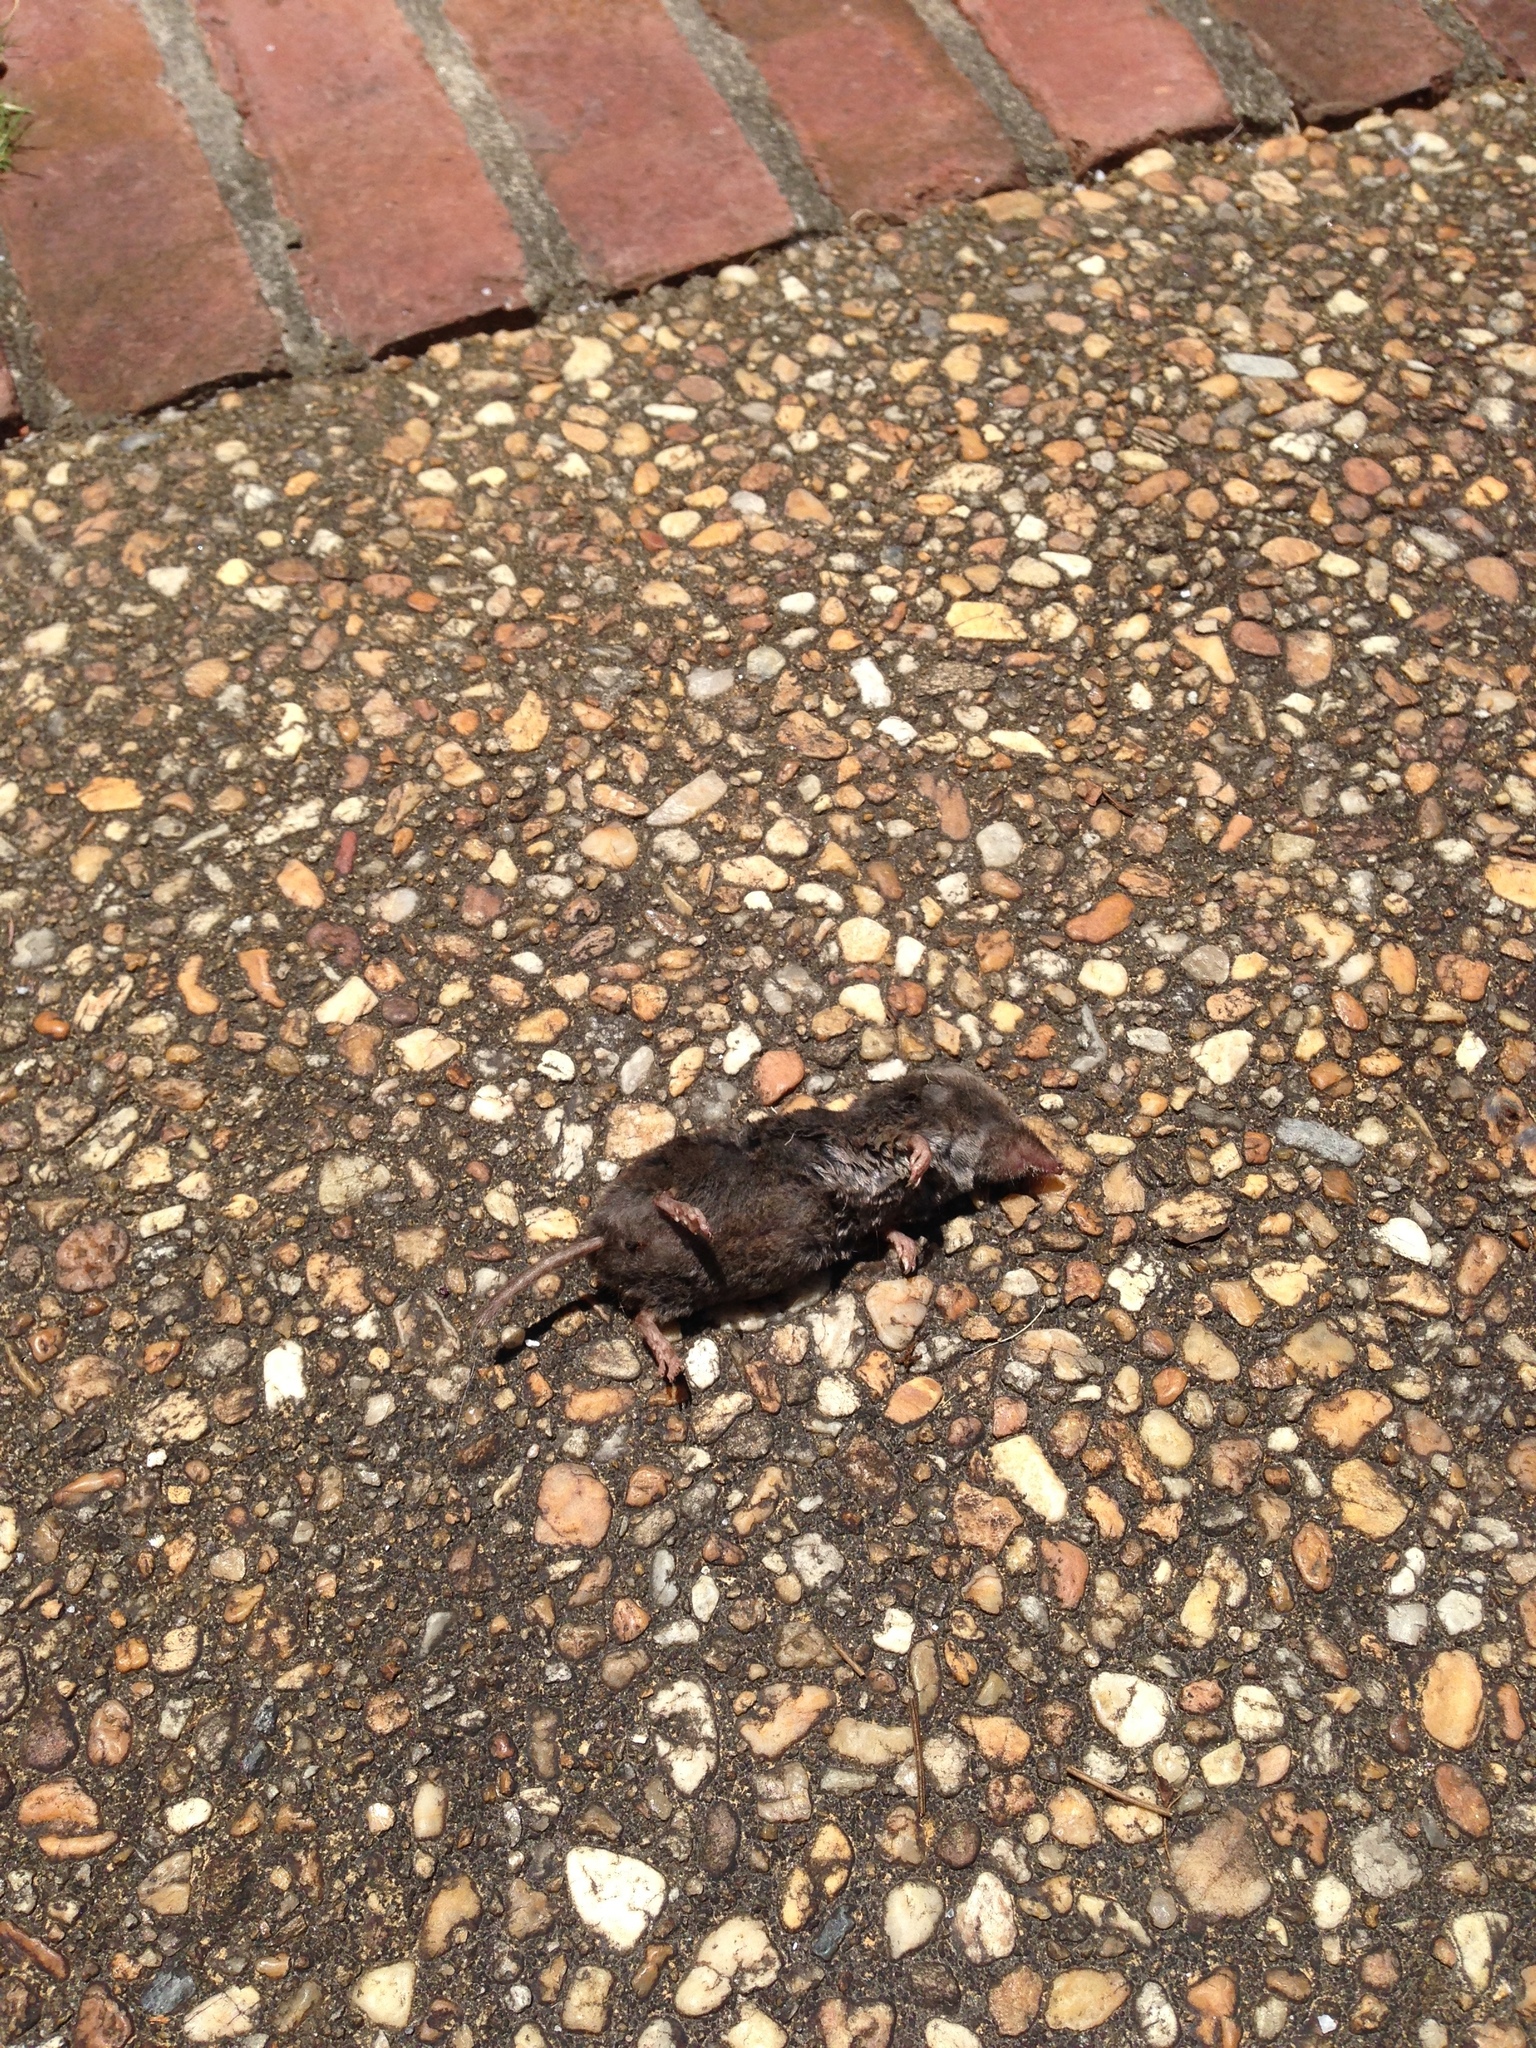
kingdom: Animalia
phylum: Chordata
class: Mammalia
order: Soricomorpha
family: Soricidae
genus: Blarina
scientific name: Blarina brevicauda
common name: Northern short-tailed shrew
